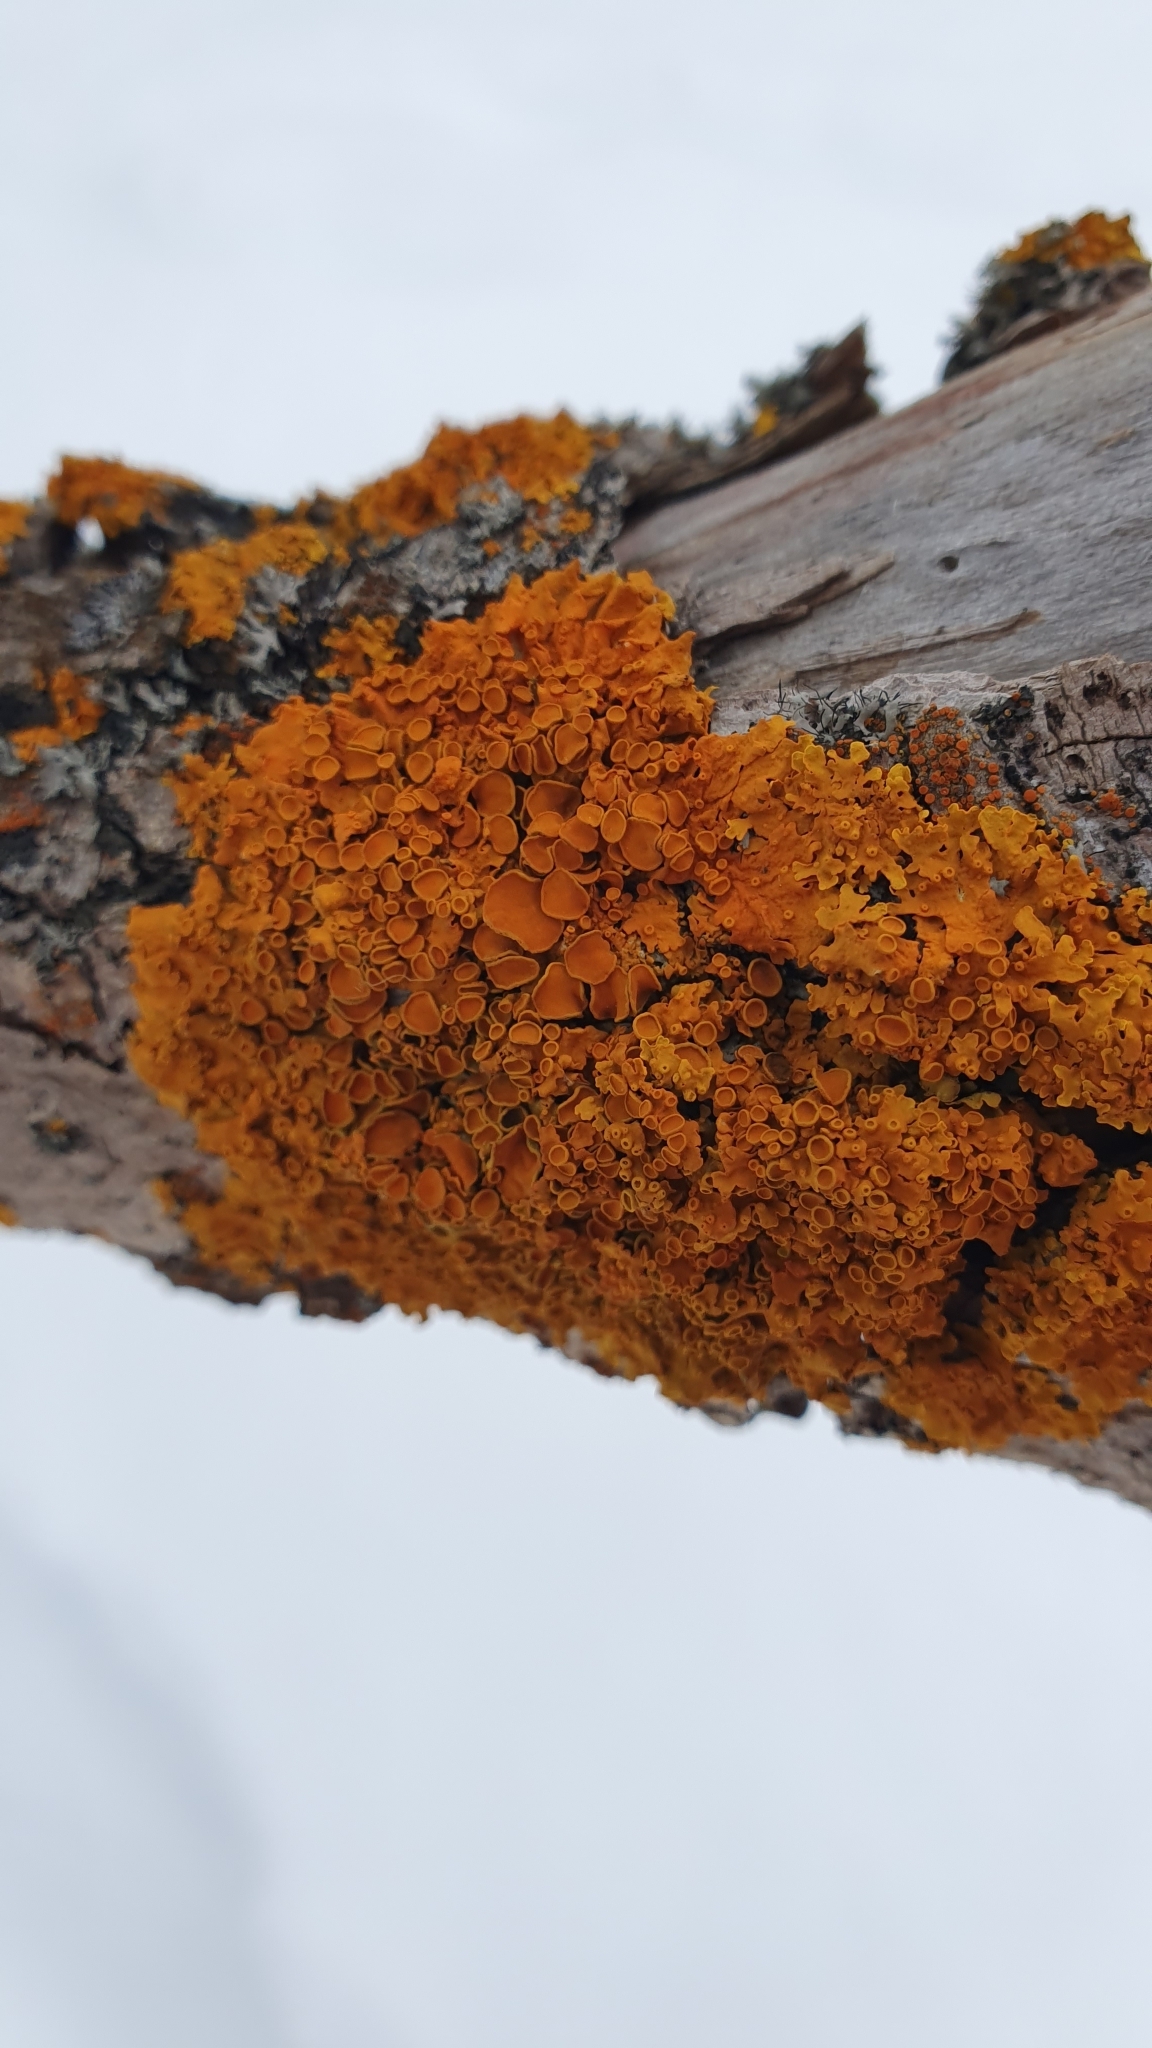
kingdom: Fungi
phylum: Ascomycota
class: Lecanoromycetes
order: Teloschistales
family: Teloschistaceae
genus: Xanthoria
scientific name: Xanthoria parietina
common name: Common orange lichen
